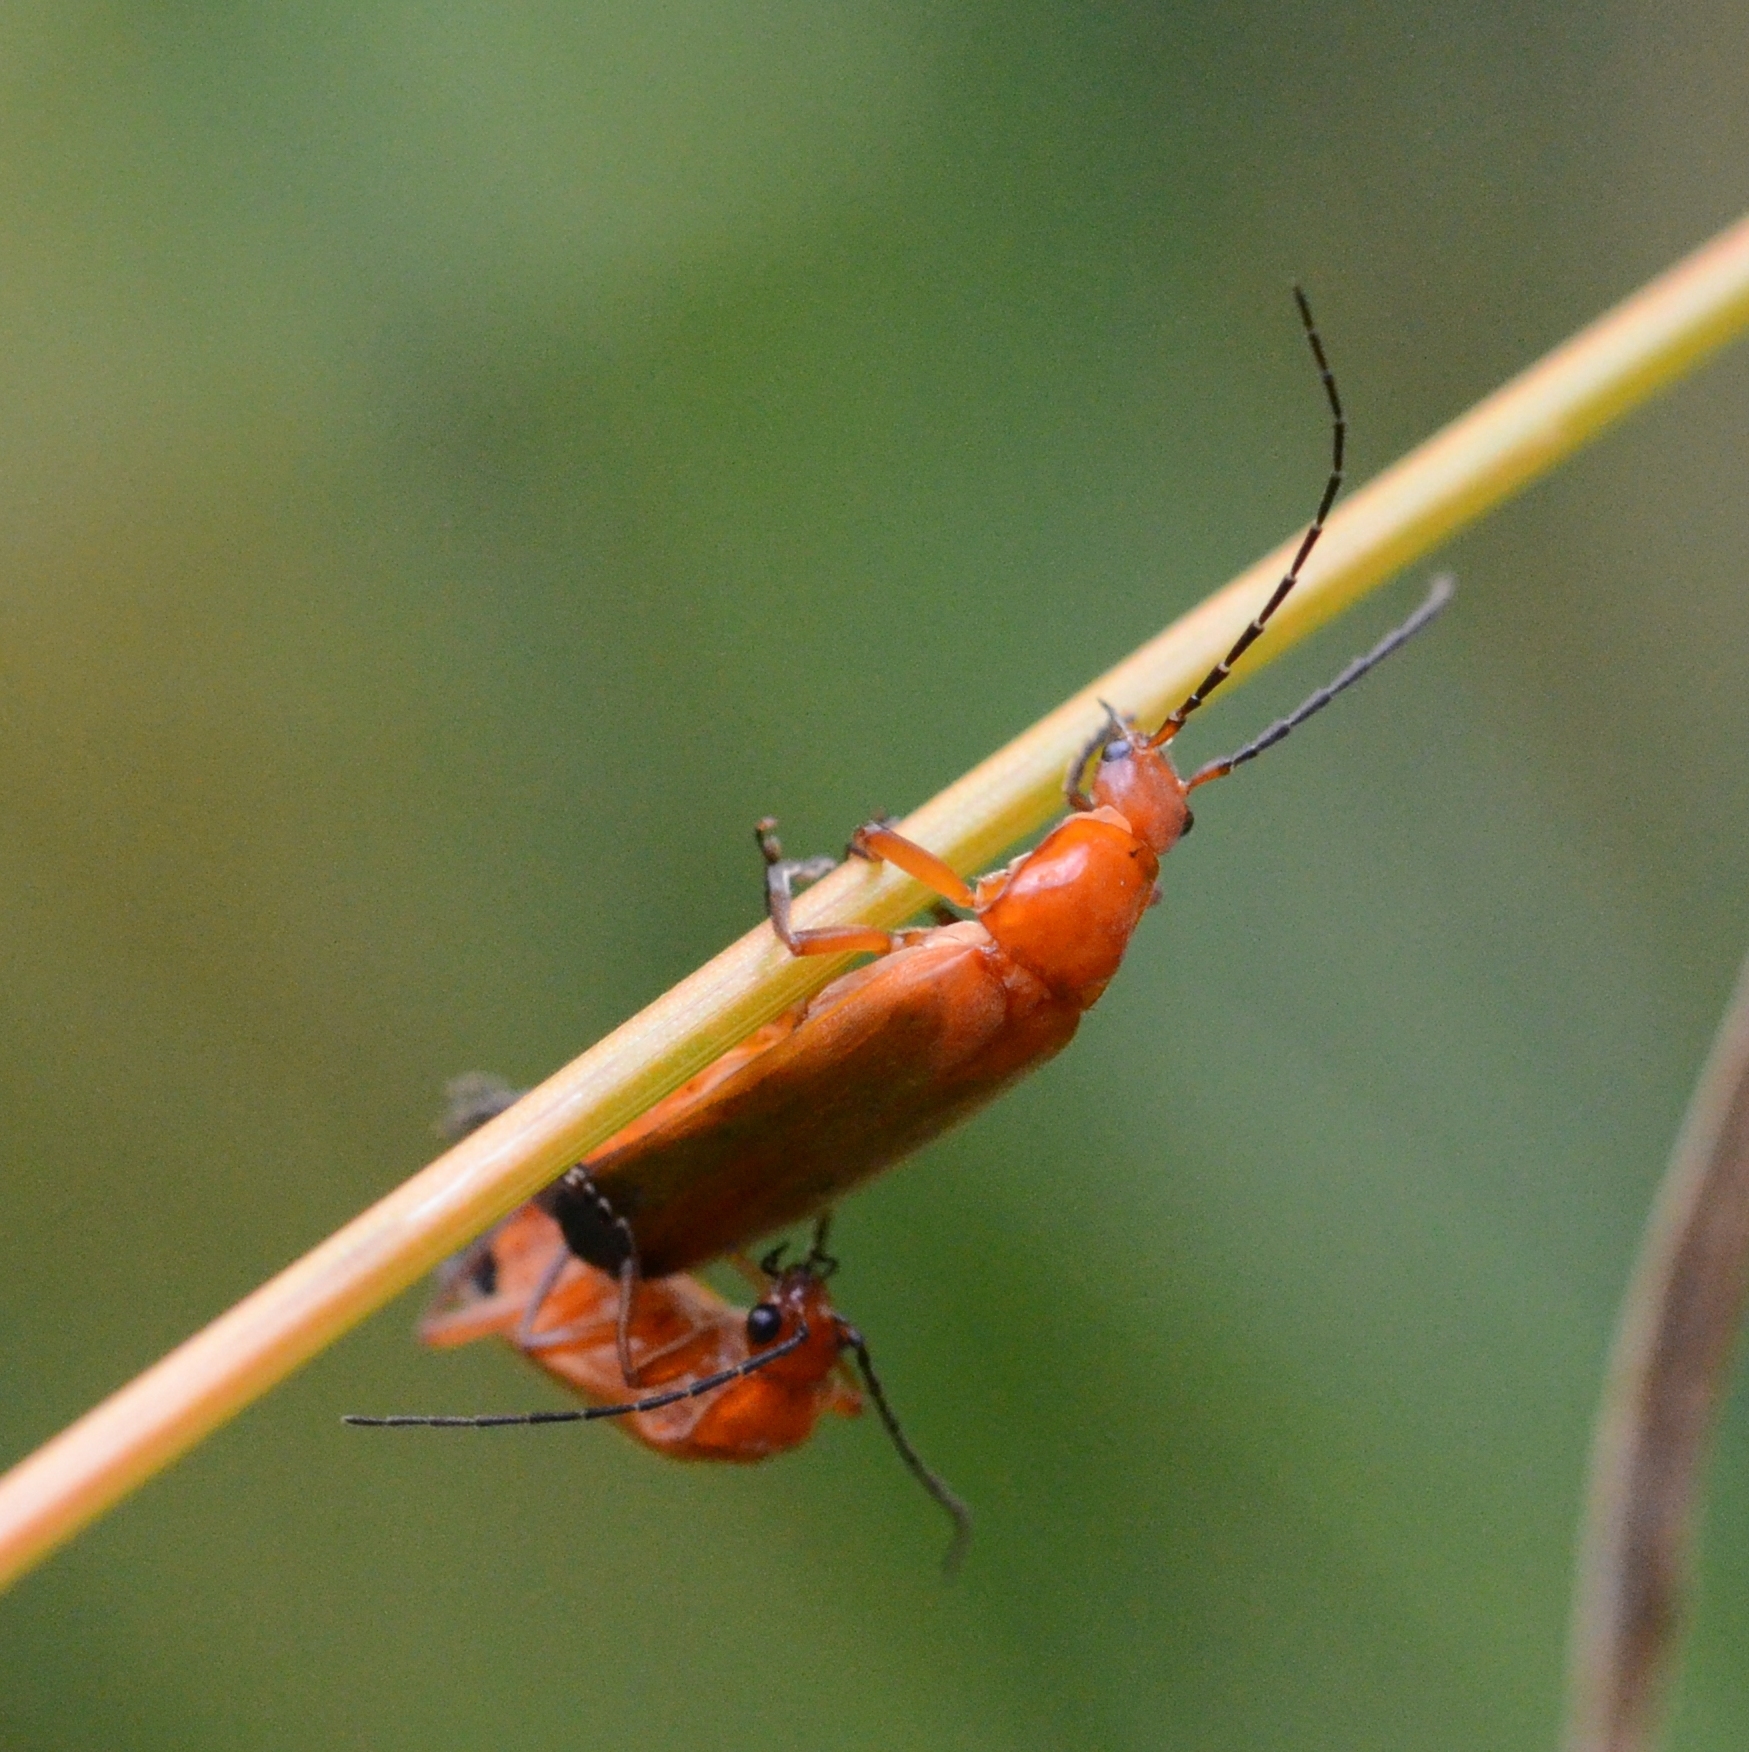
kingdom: Animalia
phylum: Arthropoda
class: Insecta
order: Coleoptera
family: Cantharidae
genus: Rhagonycha
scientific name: Rhagonycha fulva
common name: Common red soldier beetle
